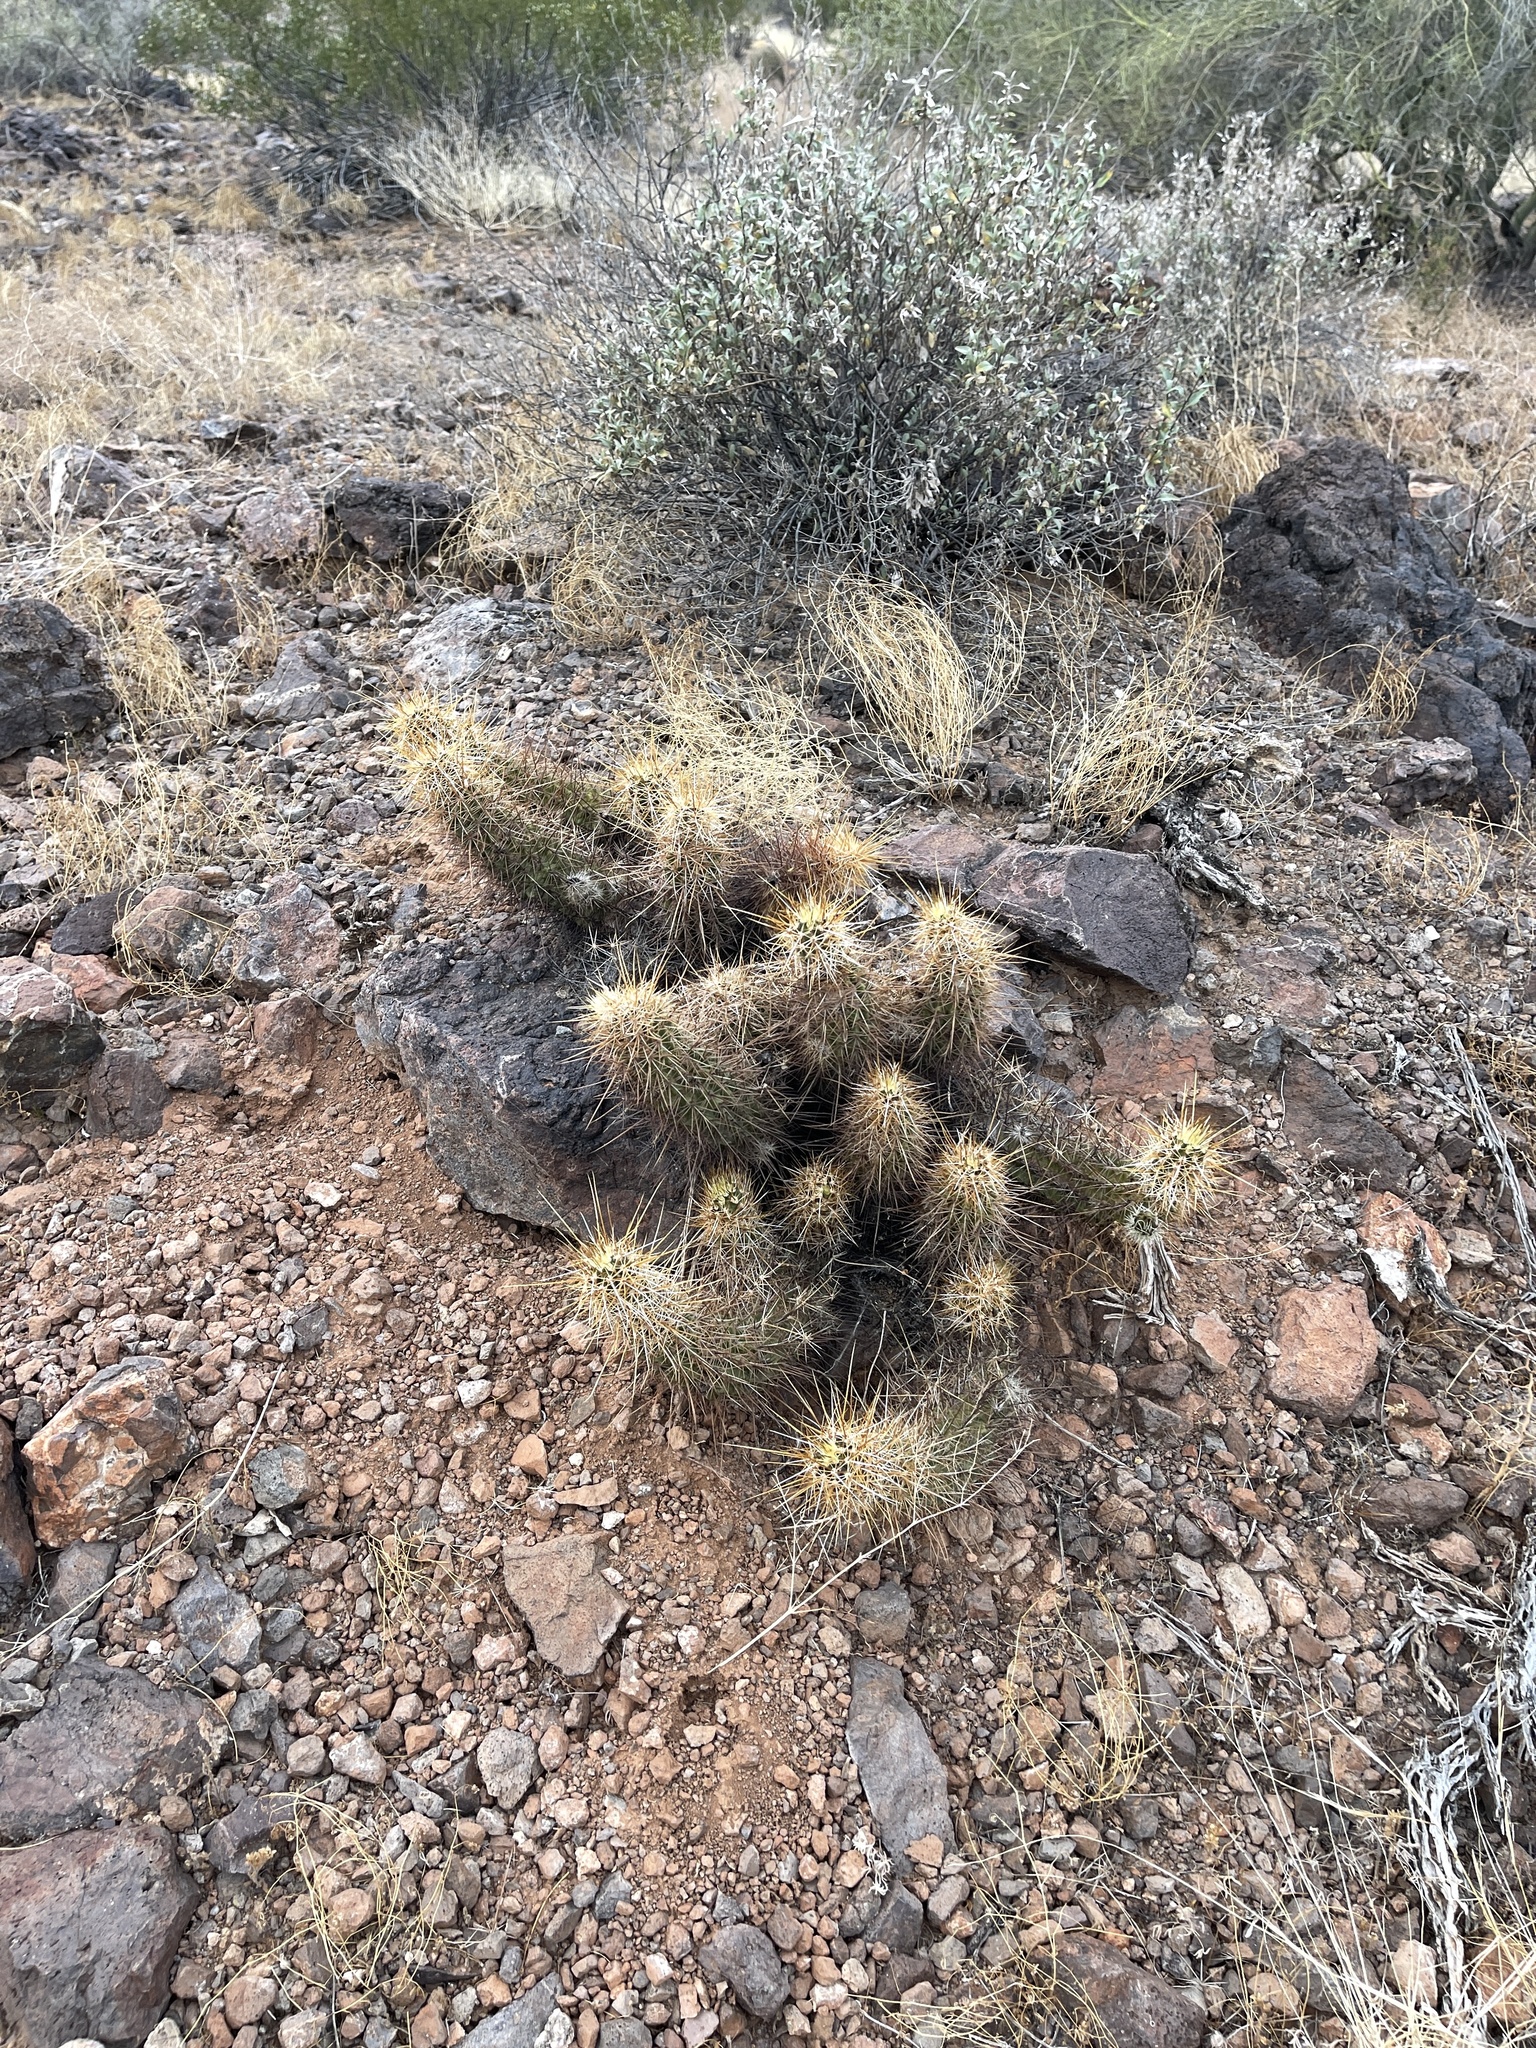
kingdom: Plantae
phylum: Tracheophyta
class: Magnoliopsida
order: Caryophyllales
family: Cactaceae
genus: Echinocereus
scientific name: Echinocereus engelmannii
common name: Engelmann's hedgehog cactus
